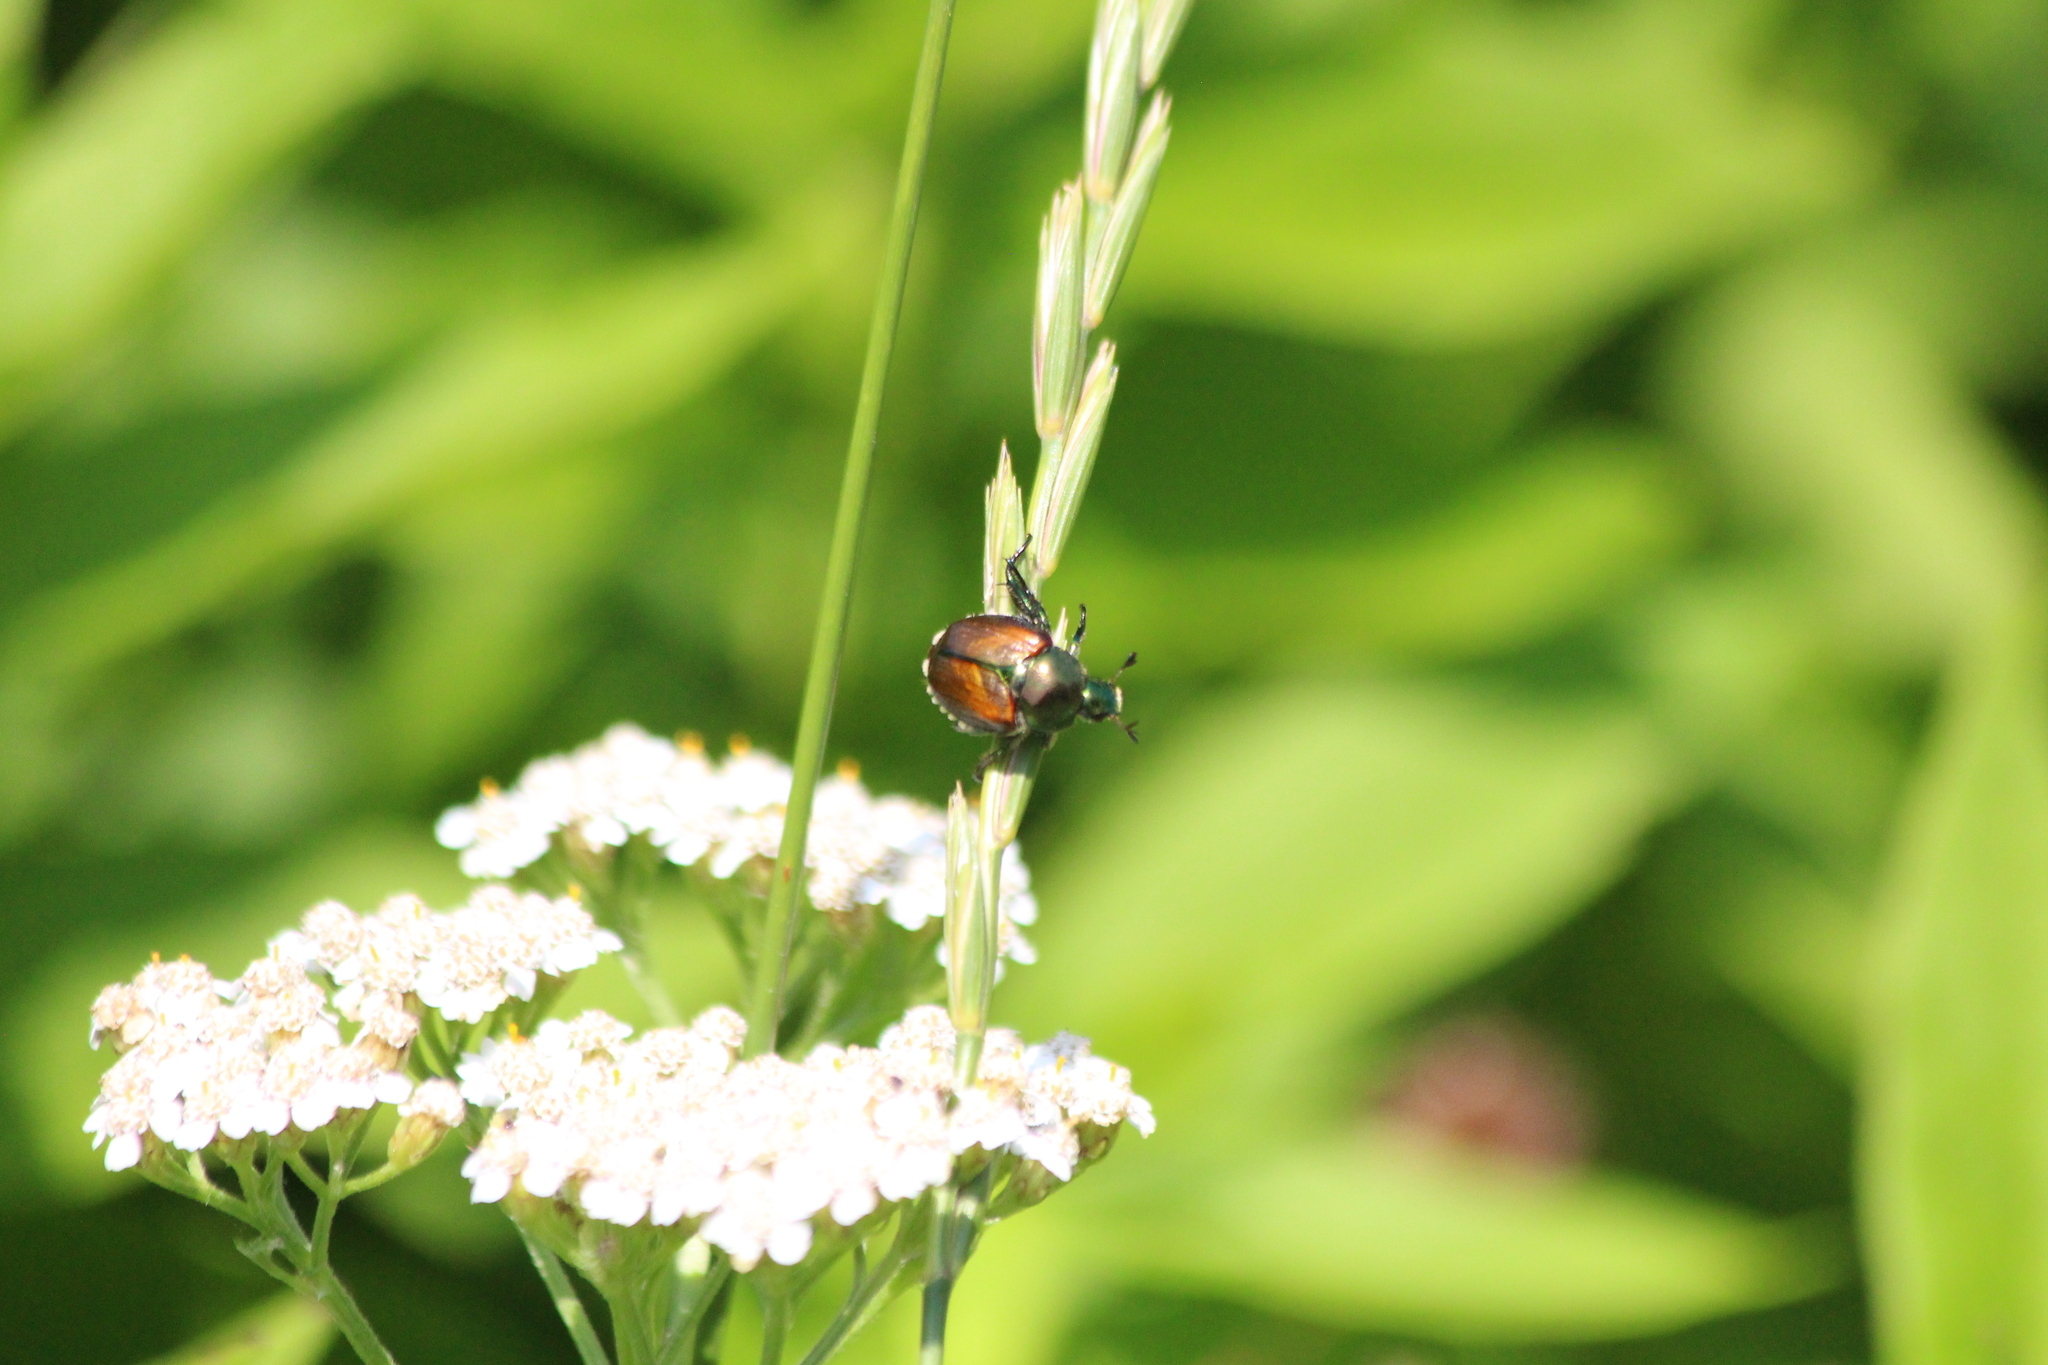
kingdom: Animalia
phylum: Arthropoda
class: Insecta
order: Coleoptera
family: Scarabaeidae
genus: Popillia
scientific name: Popillia japonica
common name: Japanese beetle
